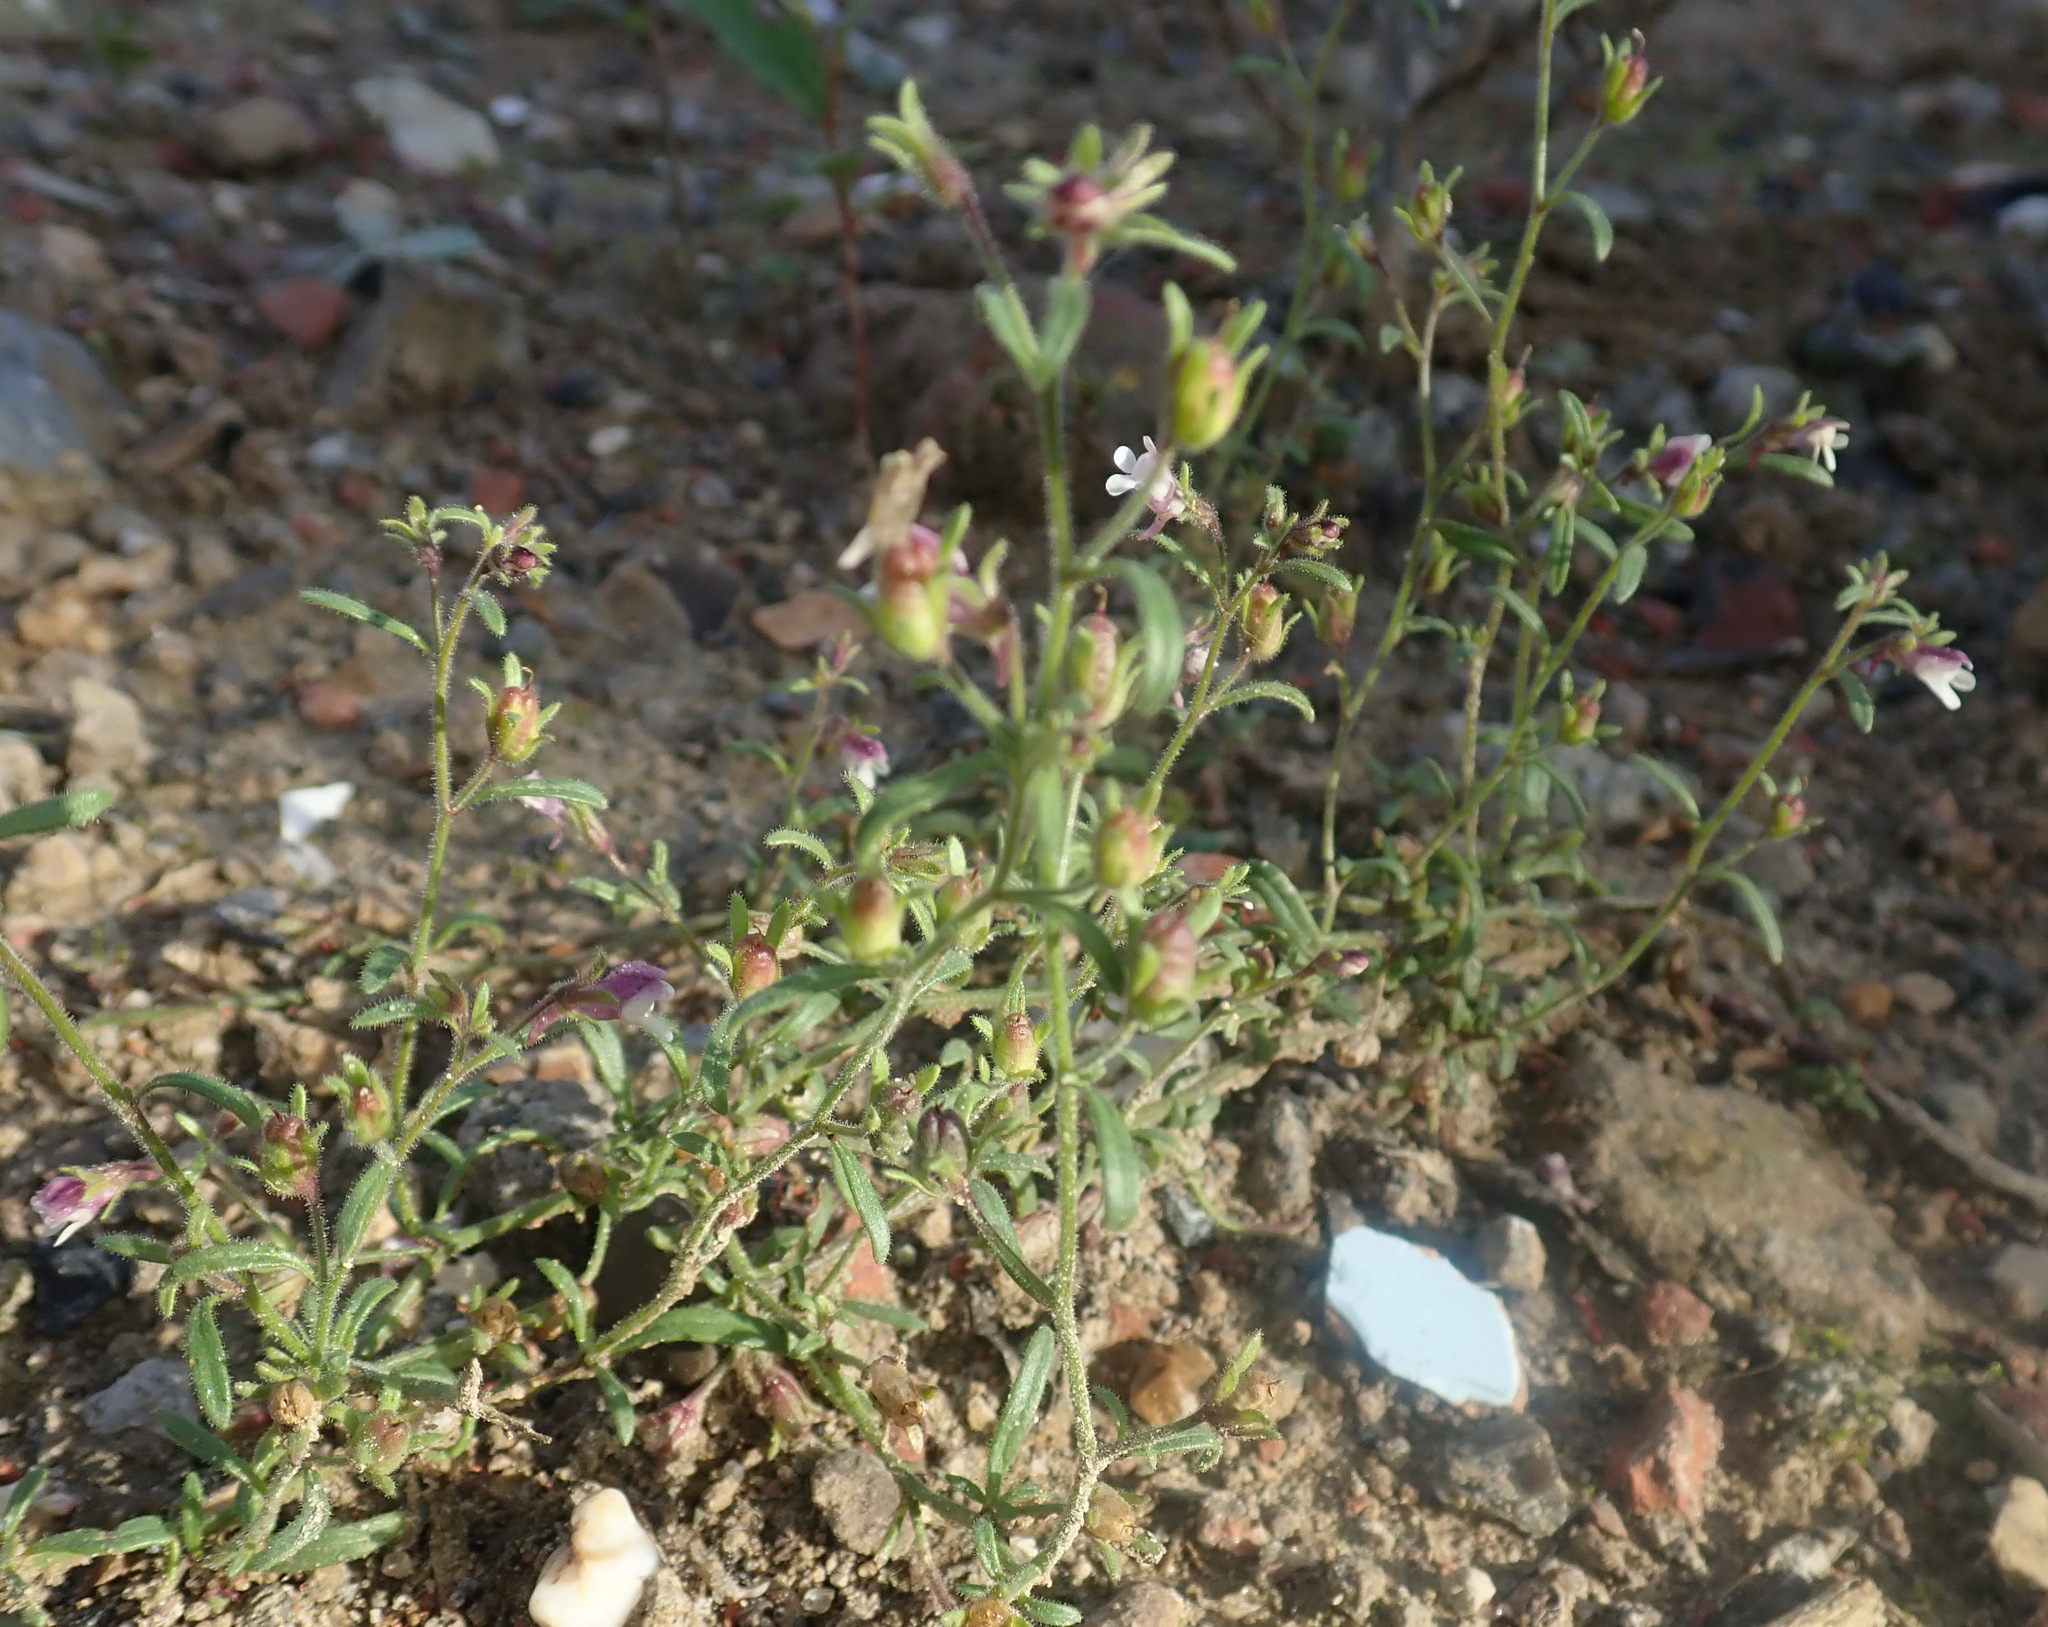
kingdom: Plantae
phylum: Tracheophyta
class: Magnoliopsida
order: Lamiales
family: Plantaginaceae
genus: Chaenorhinum
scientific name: Chaenorhinum minus
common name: Dwarf snapdragon
